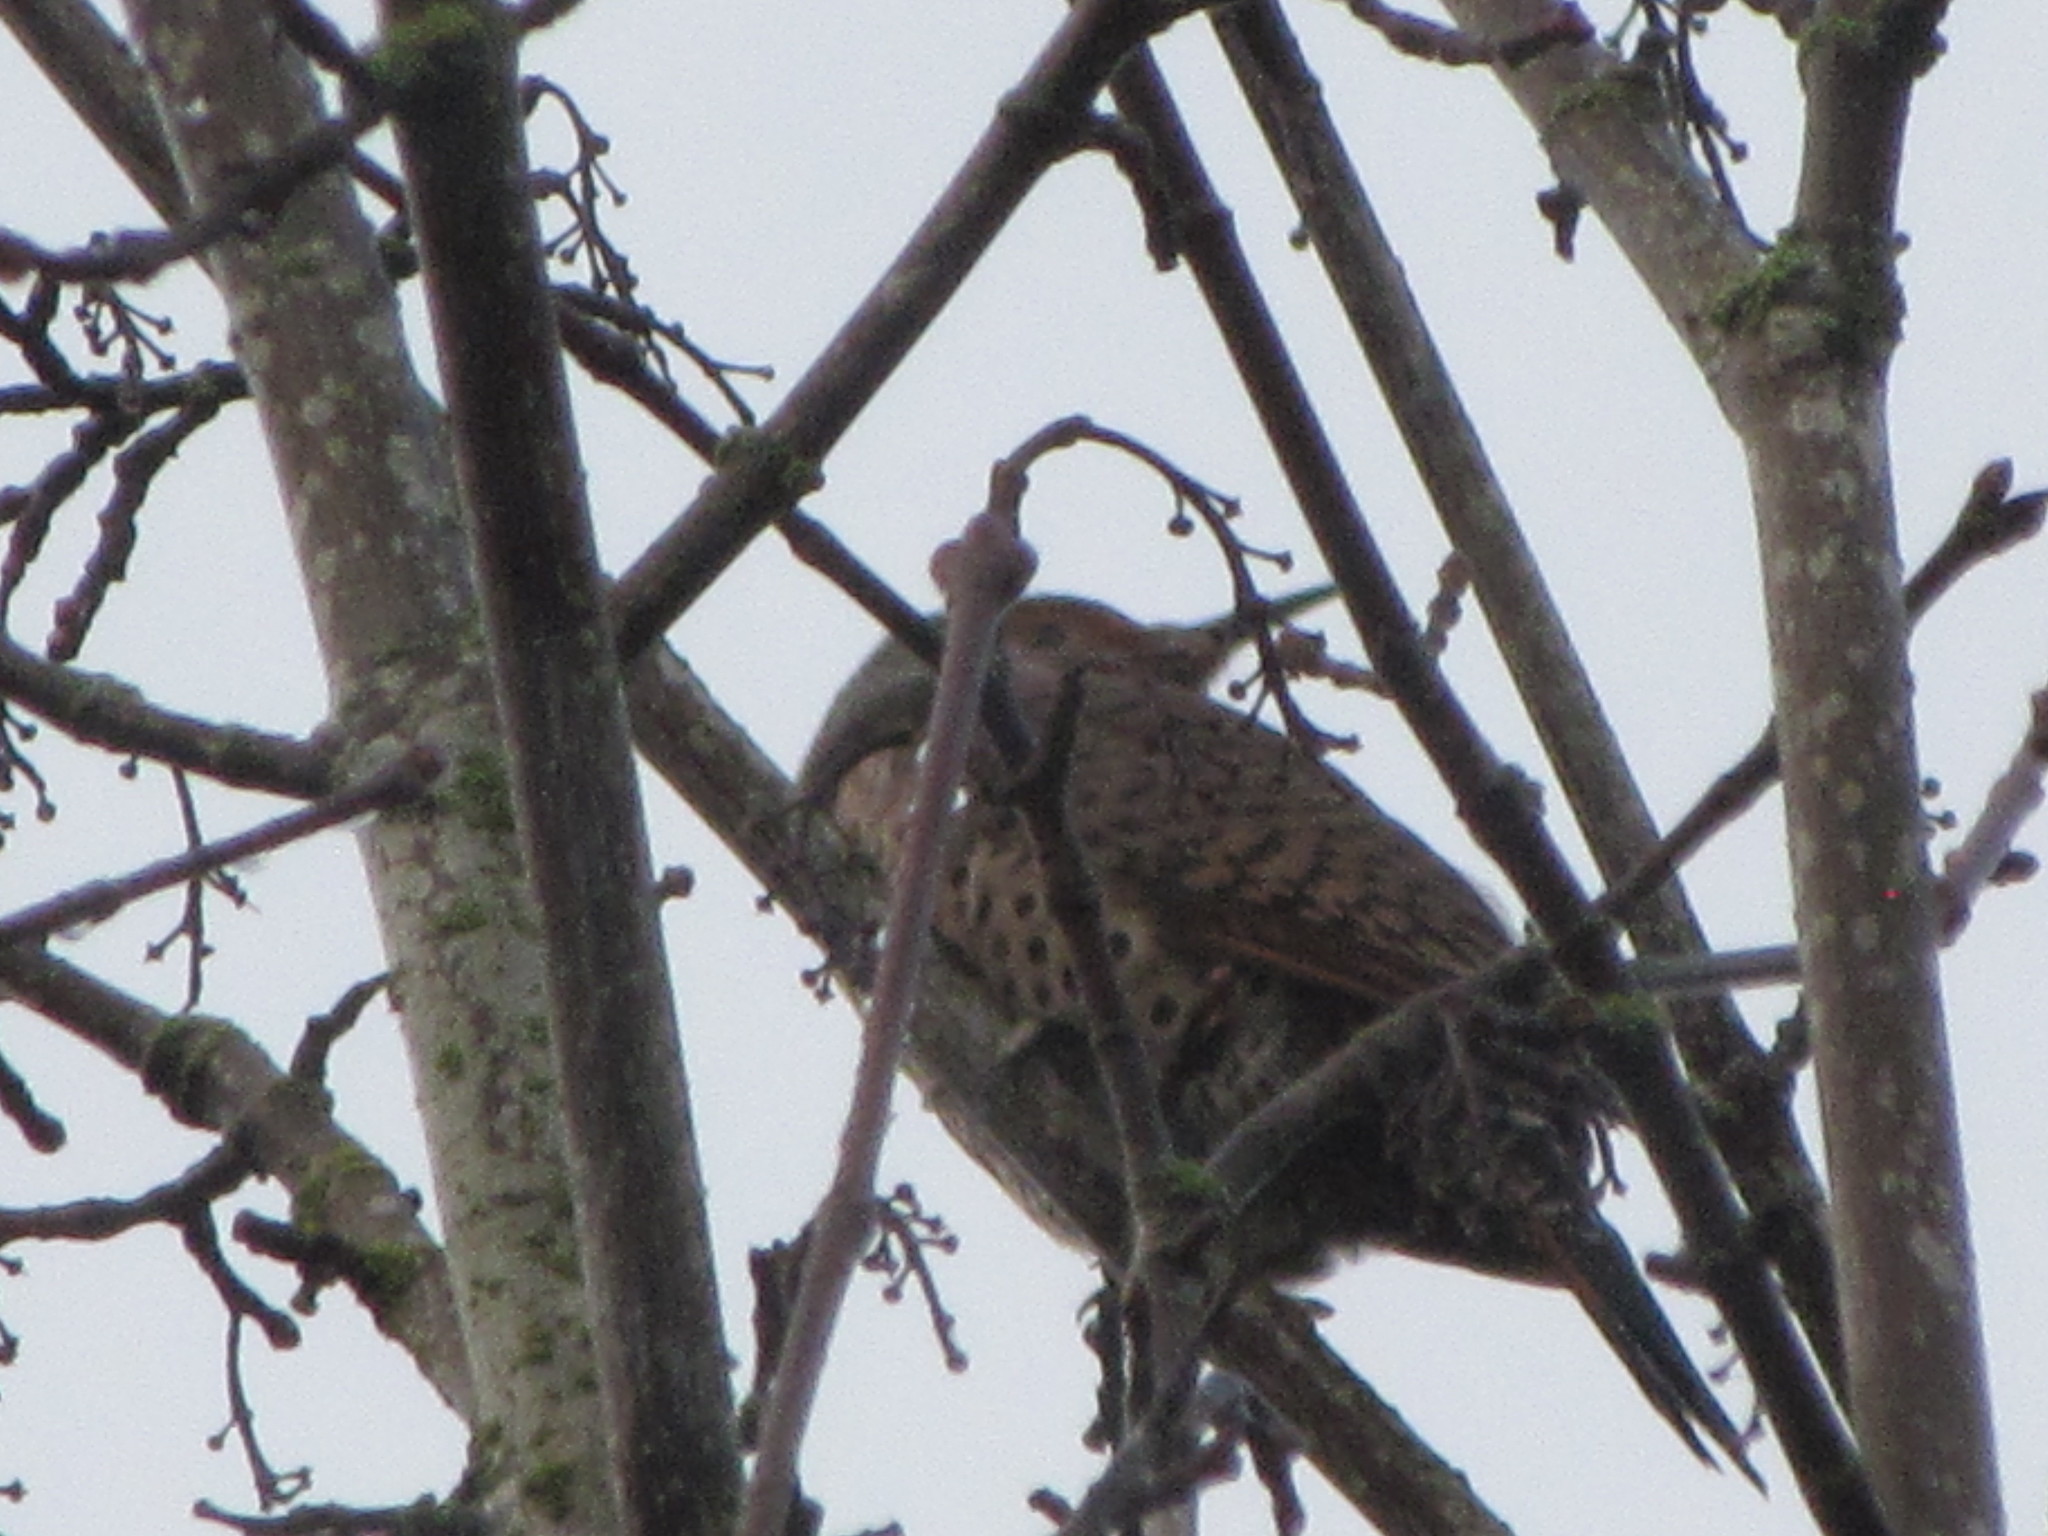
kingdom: Animalia
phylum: Chordata
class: Aves
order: Piciformes
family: Picidae
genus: Colaptes
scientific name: Colaptes auratus
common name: Northern flicker
